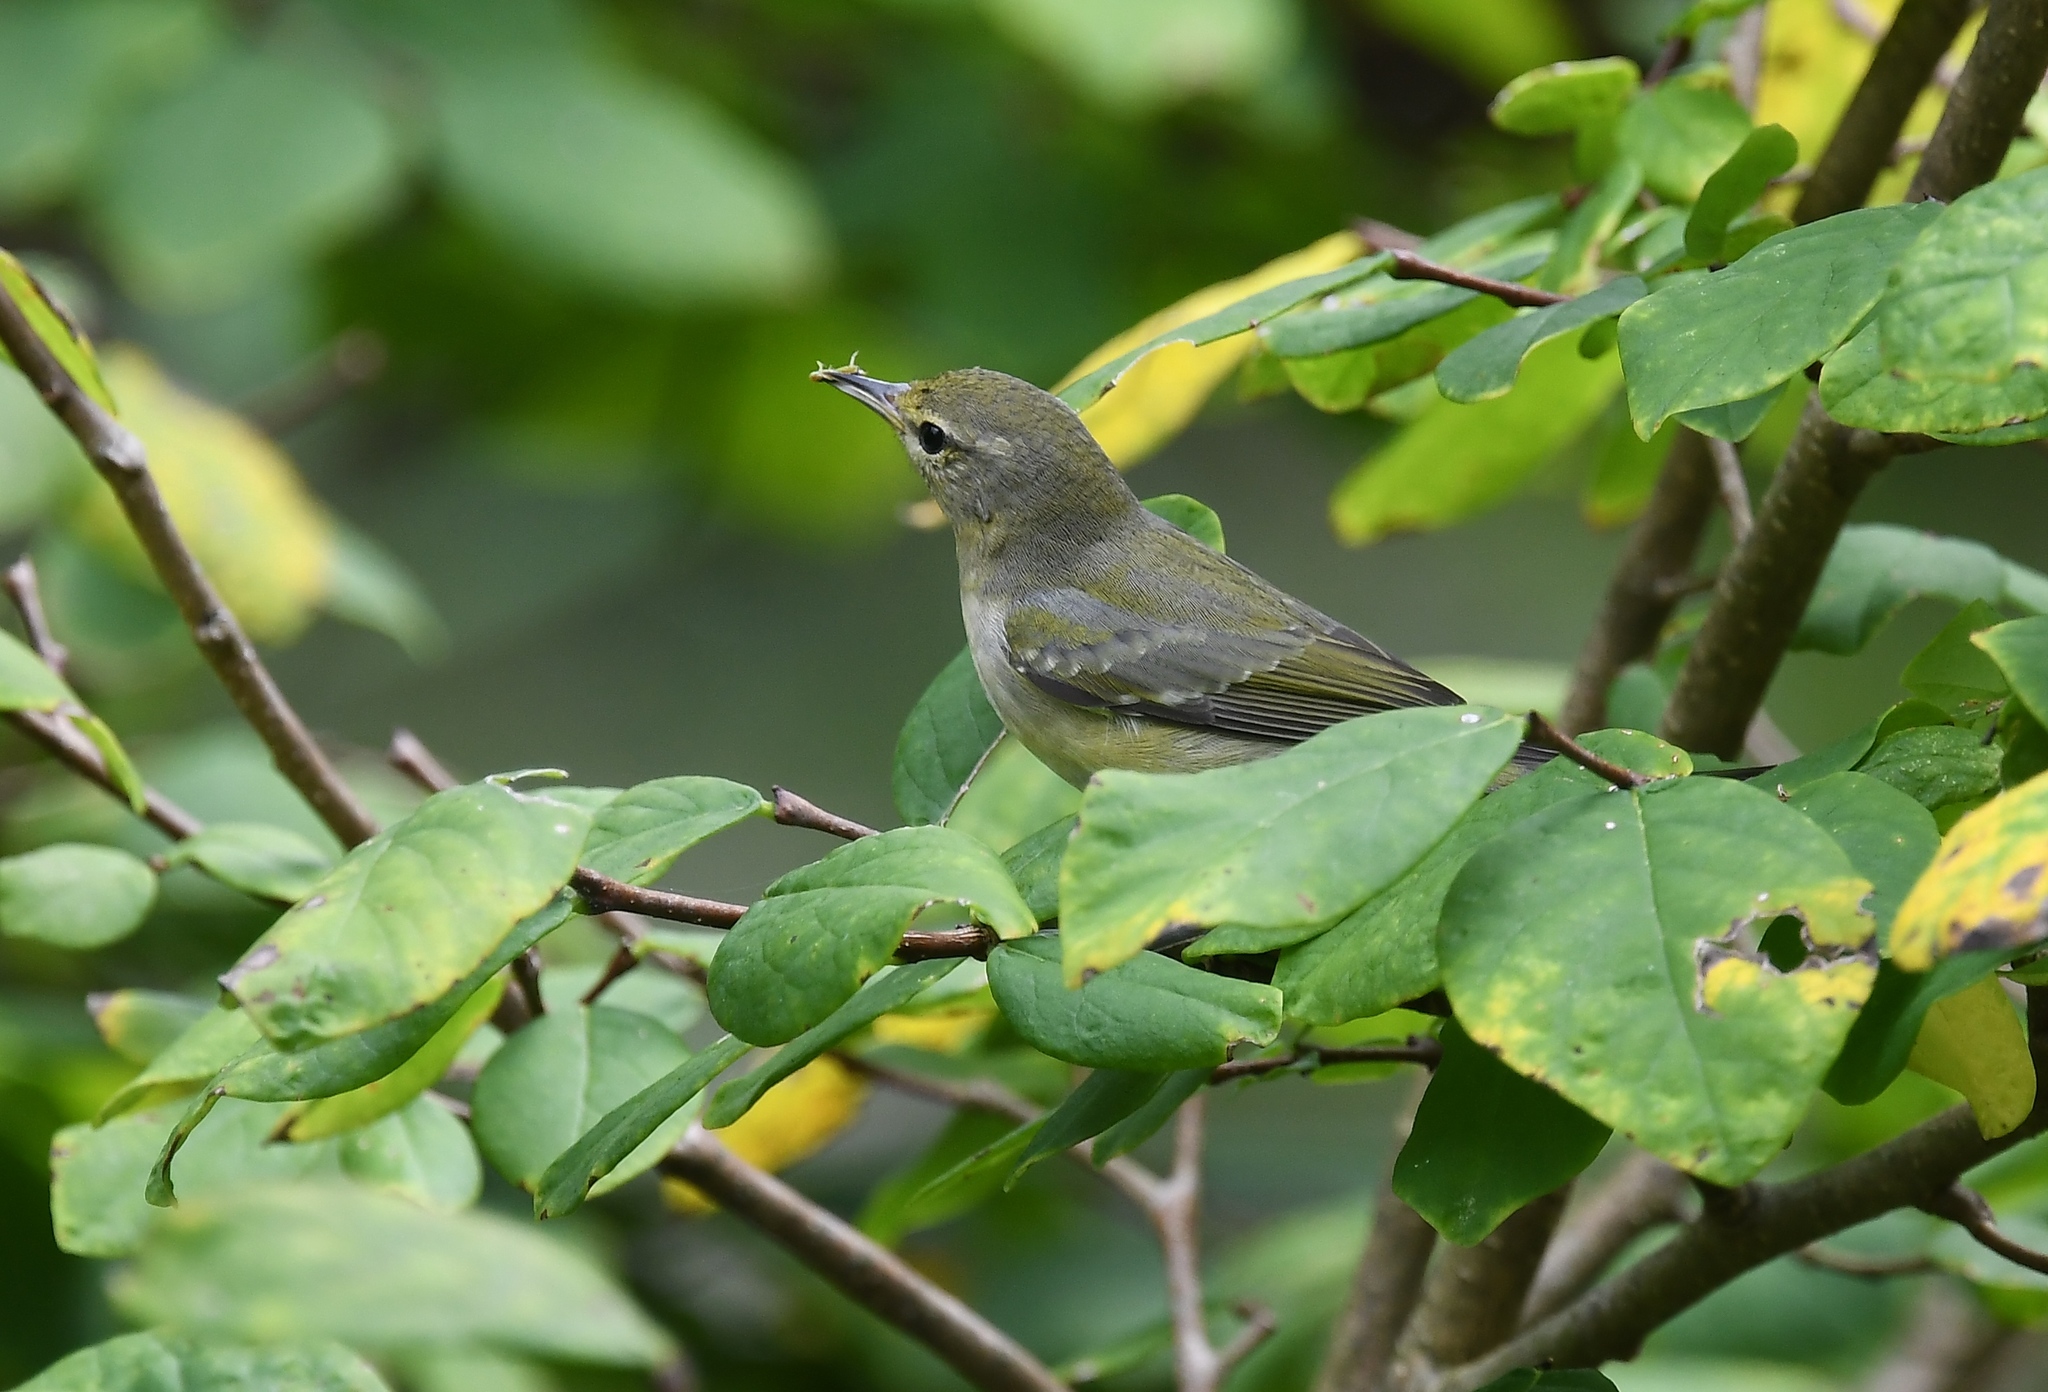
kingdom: Animalia
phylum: Chordata
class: Aves
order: Passeriformes
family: Parulidae
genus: Leiothlypis
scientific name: Leiothlypis peregrina
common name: Tennessee warbler
